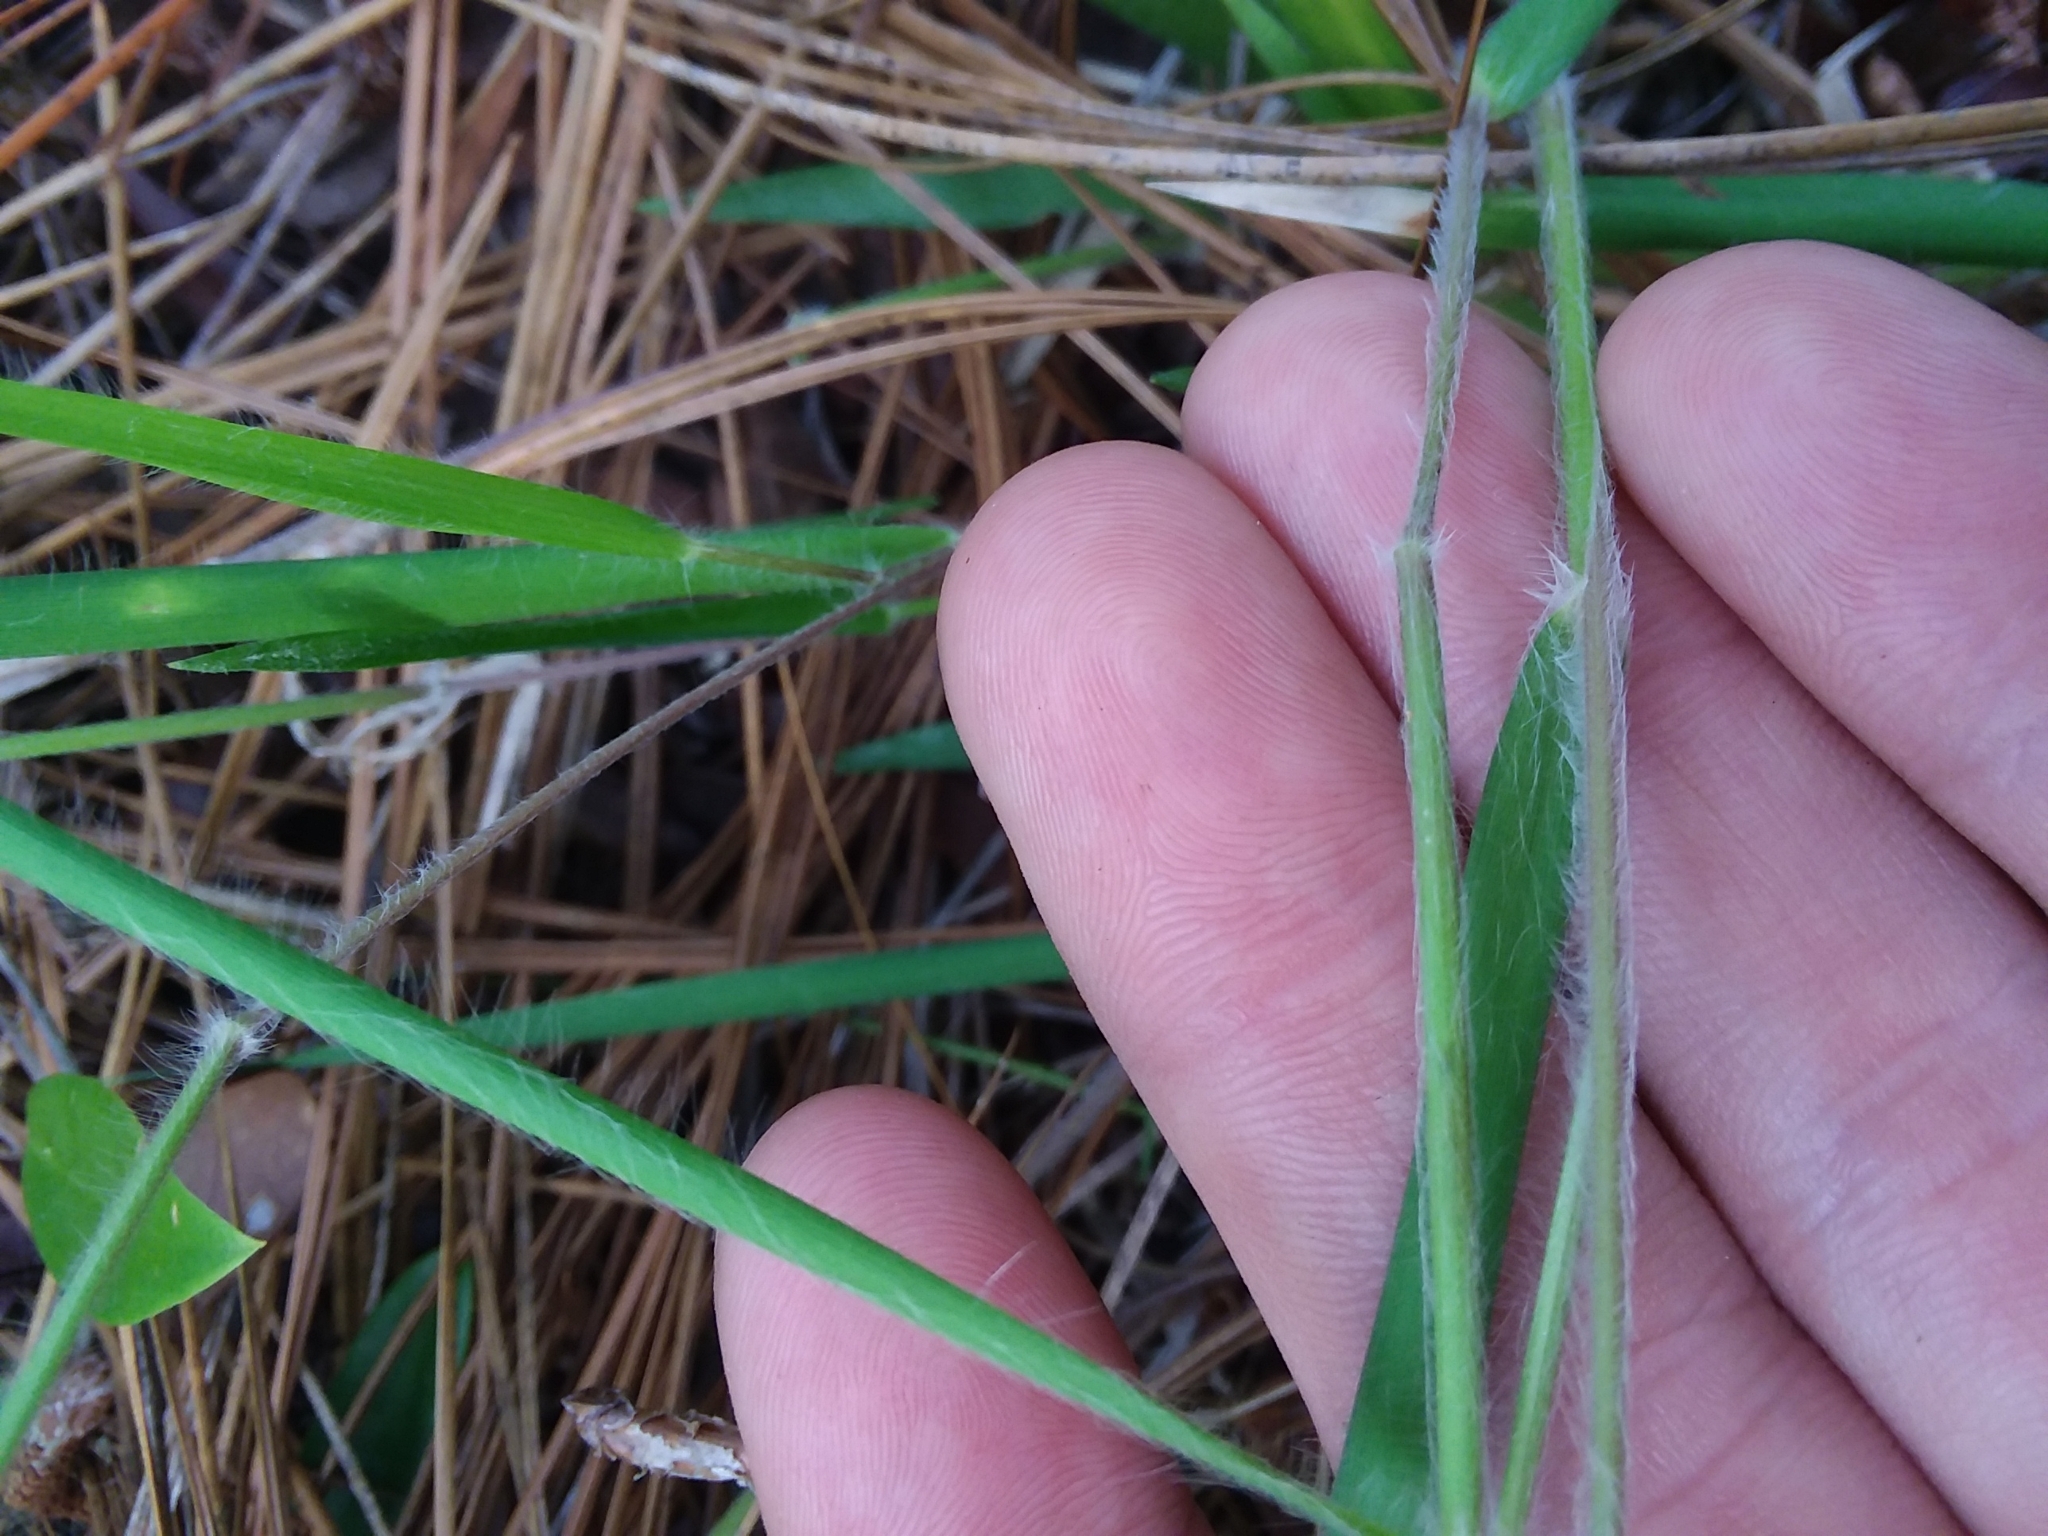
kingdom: Plantae
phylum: Tracheophyta
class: Liliopsida
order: Poales
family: Poaceae
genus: Dichanthelium
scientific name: Dichanthelium consanguineum
